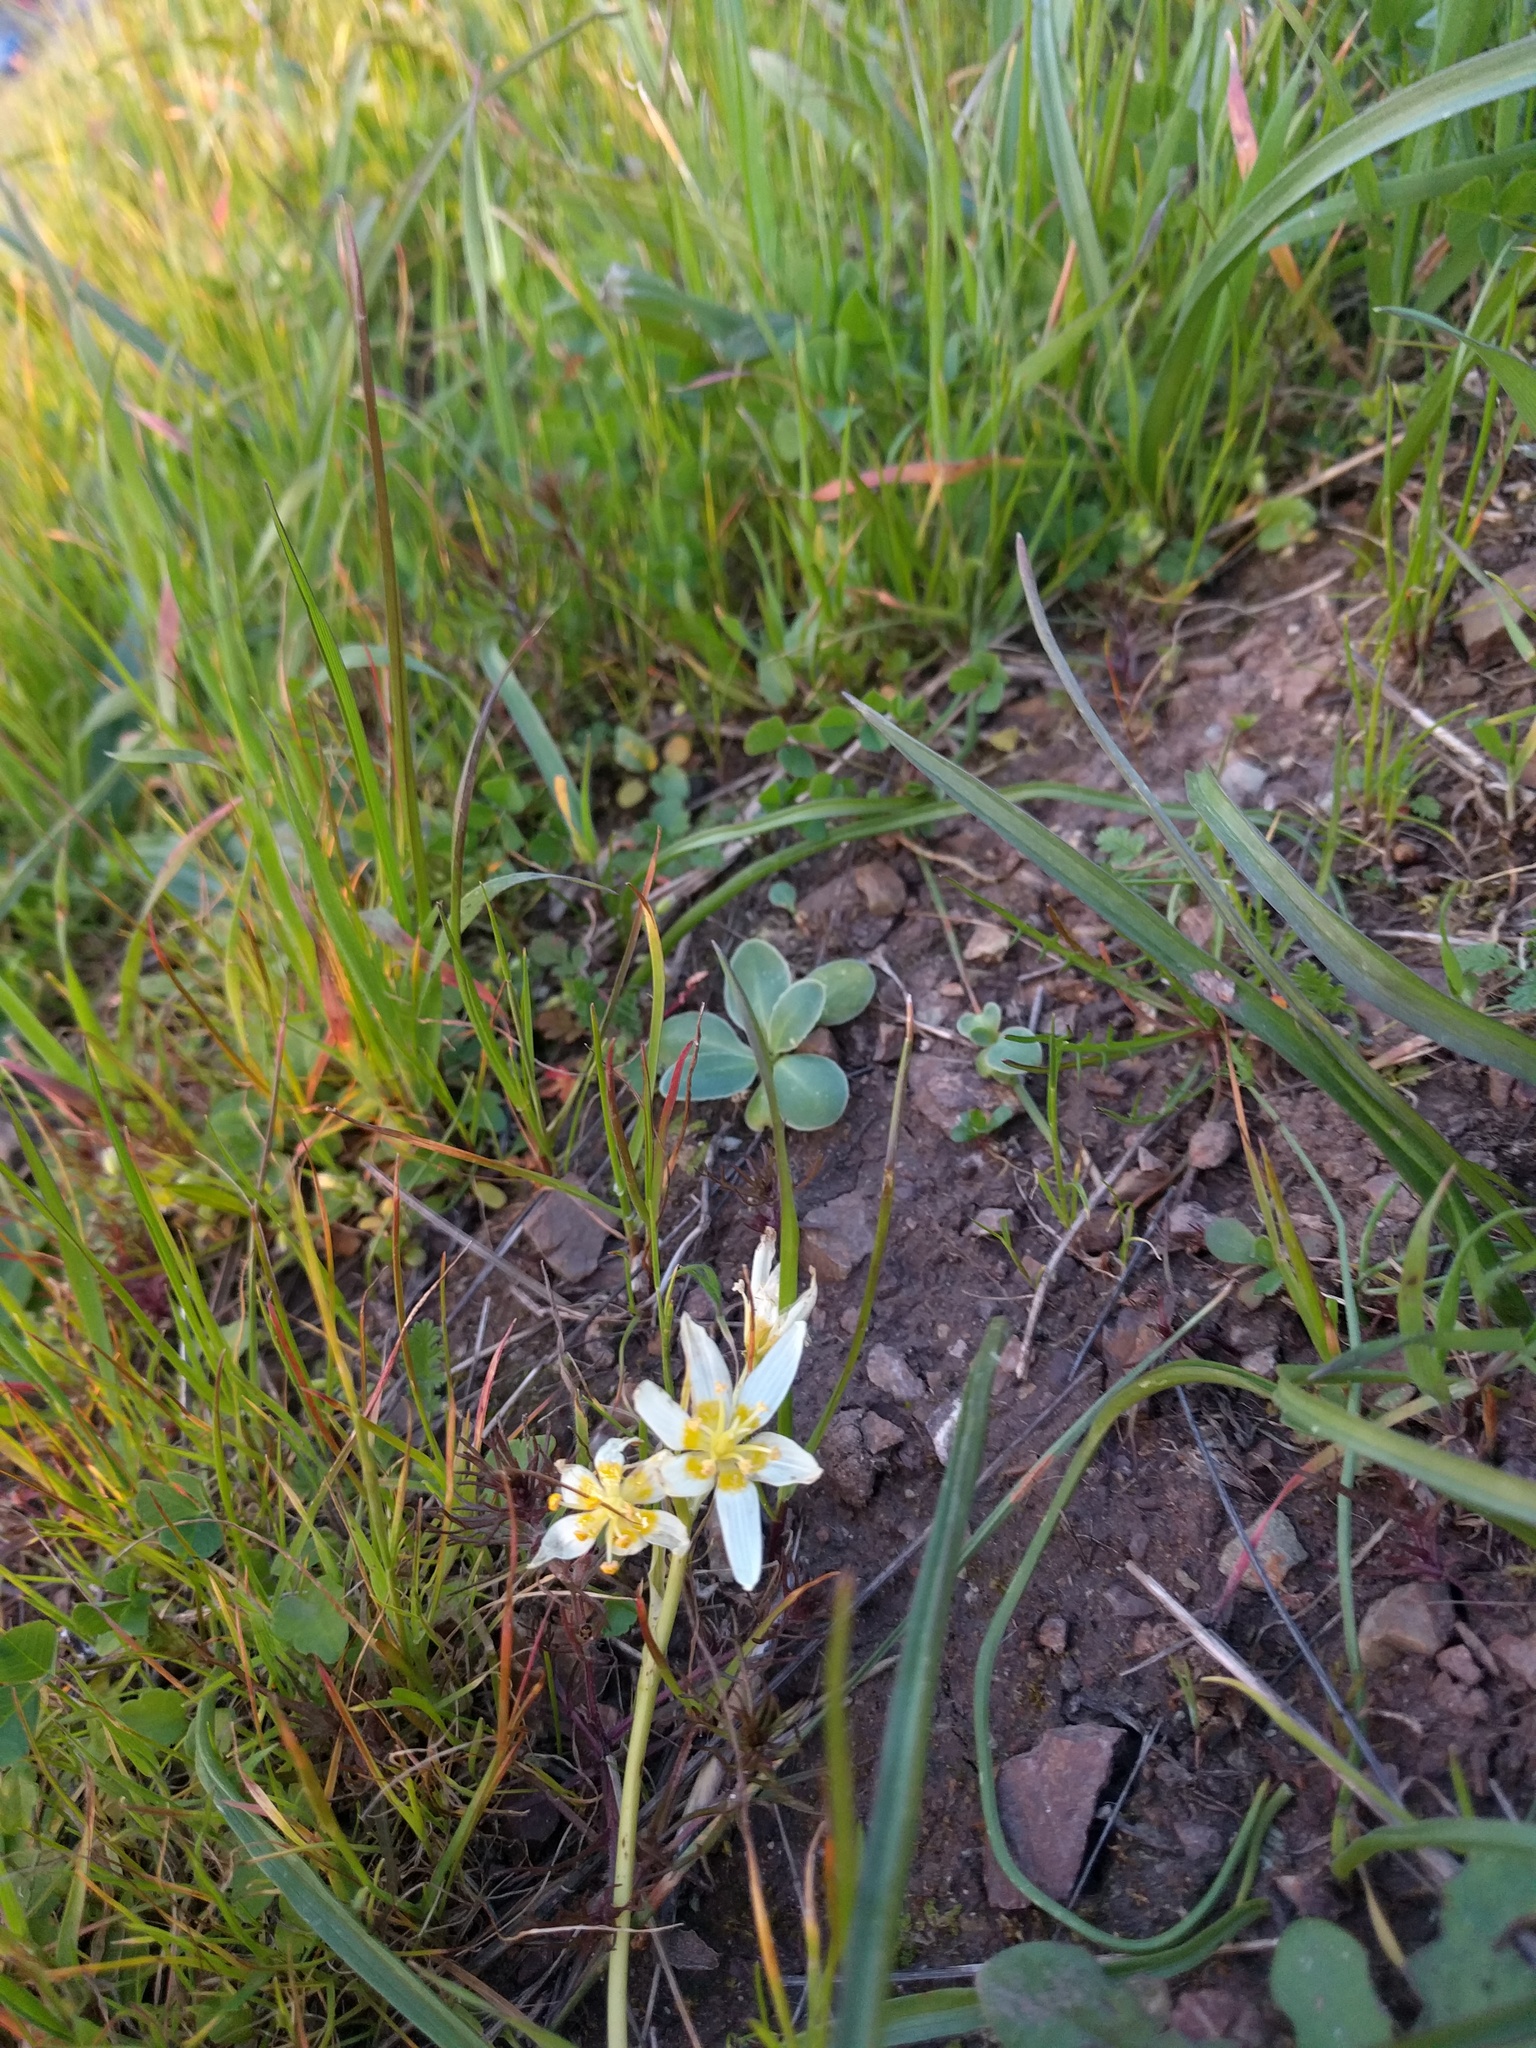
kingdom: Plantae
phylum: Tracheophyta
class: Liliopsida
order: Liliales
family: Melanthiaceae
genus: Toxicoscordion
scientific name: Toxicoscordion fremontii
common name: Fremont's death camas
